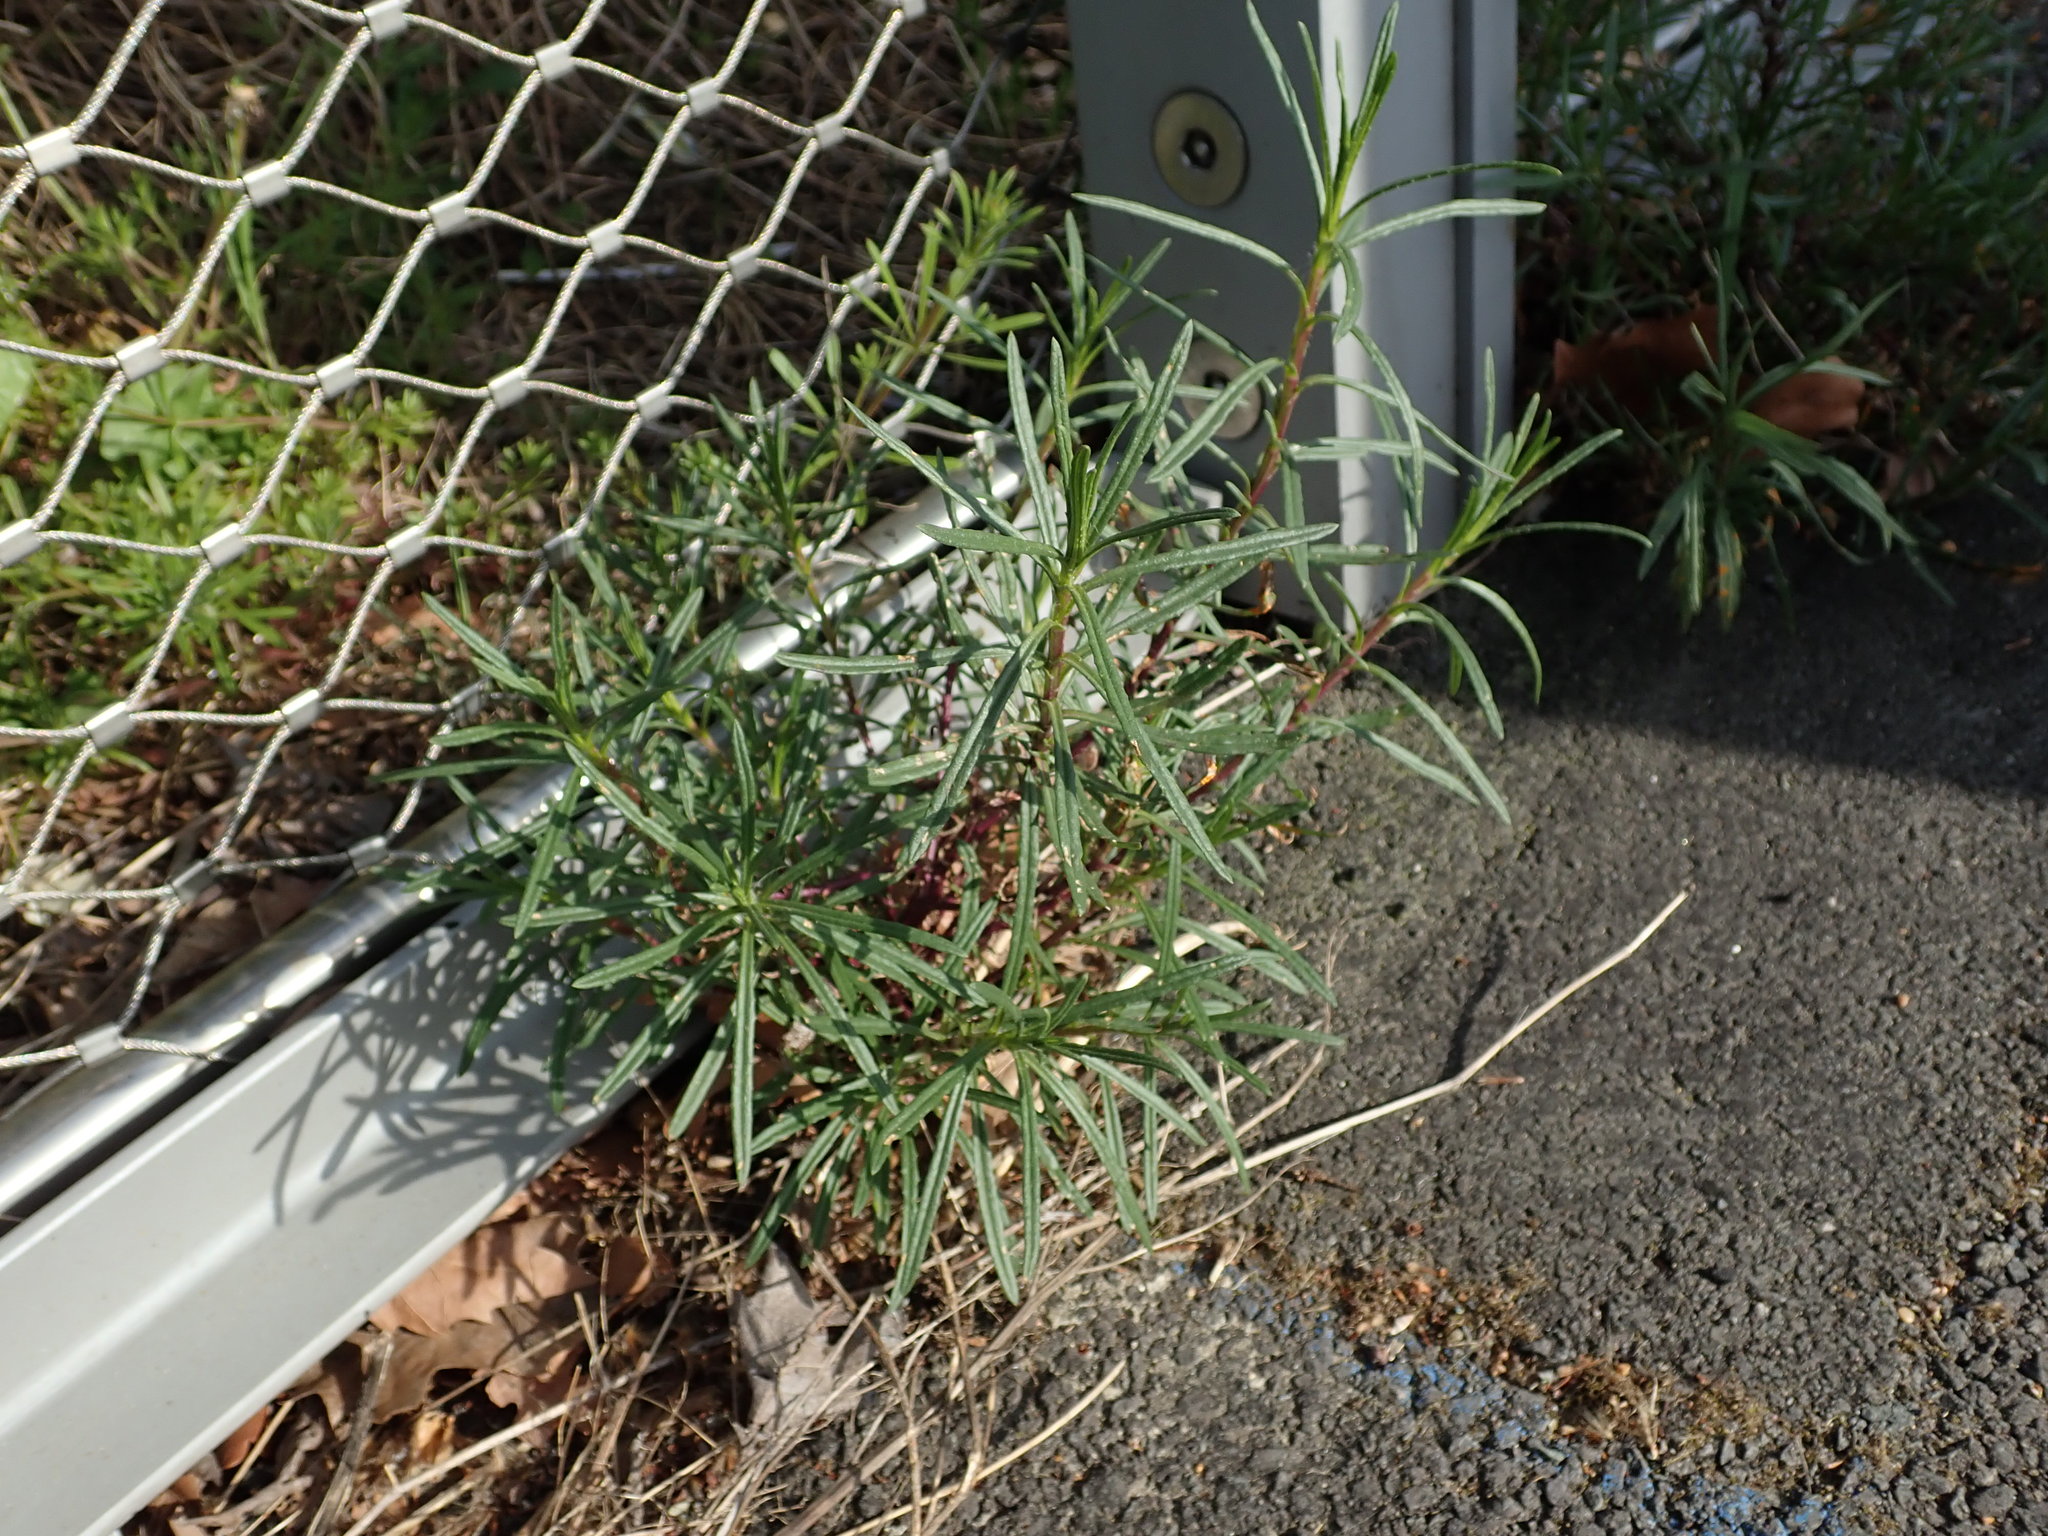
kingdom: Plantae
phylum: Tracheophyta
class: Magnoliopsida
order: Asterales
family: Asteraceae
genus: Senecio
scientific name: Senecio inaequidens
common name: Narrow-leaved ragwort
